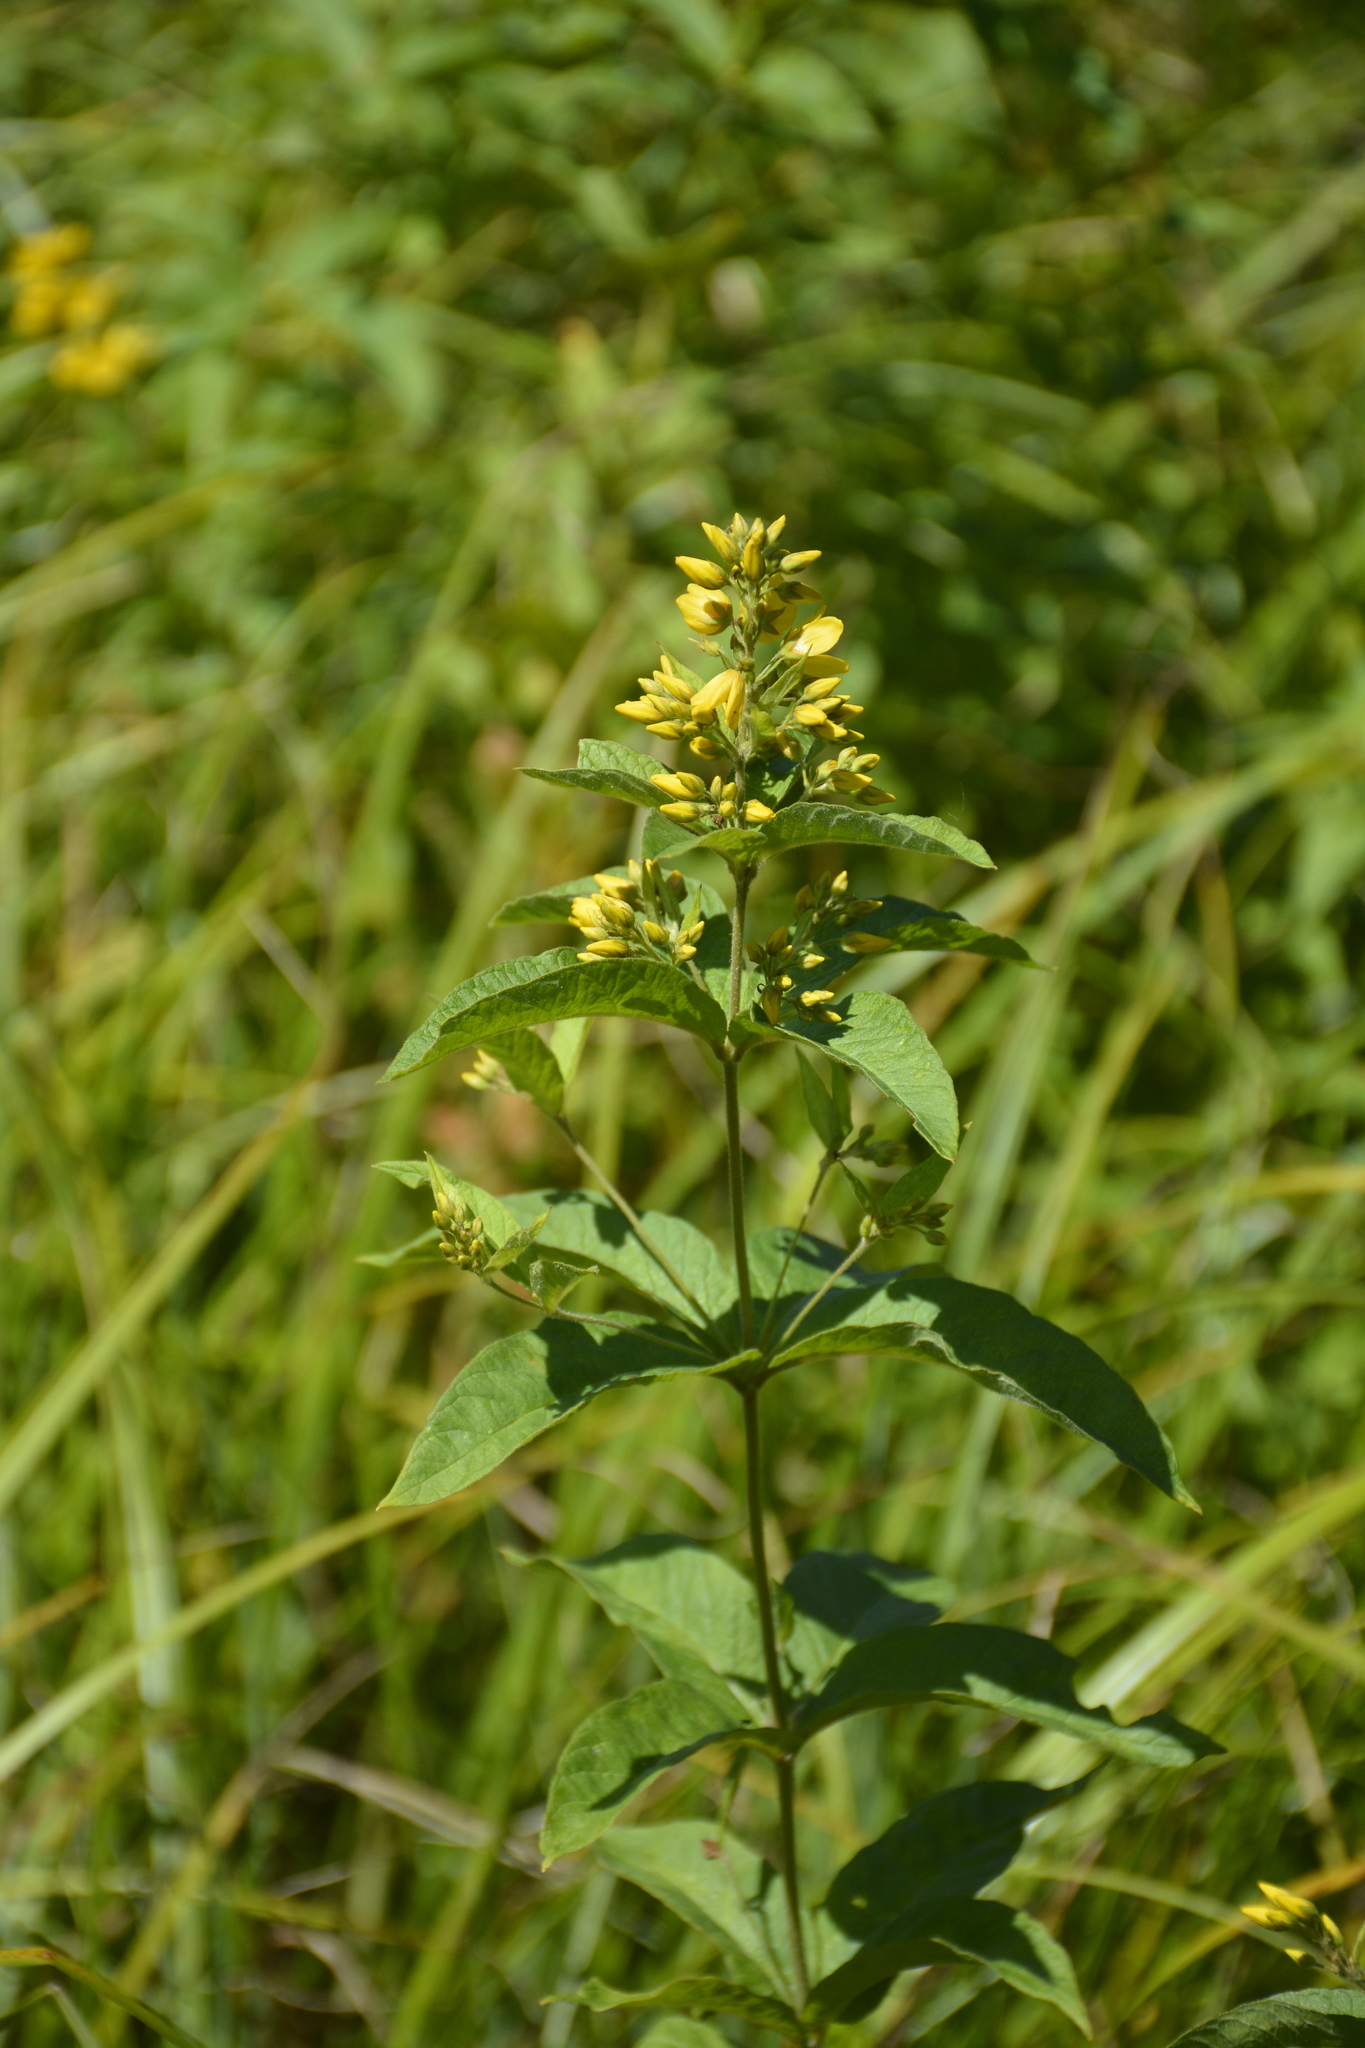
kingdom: Plantae
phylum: Tracheophyta
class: Magnoliopsida
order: Ericales
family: Primulaceae
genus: Lysimachia
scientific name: Lysimachia vulgaris
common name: Yellow loosestrife
